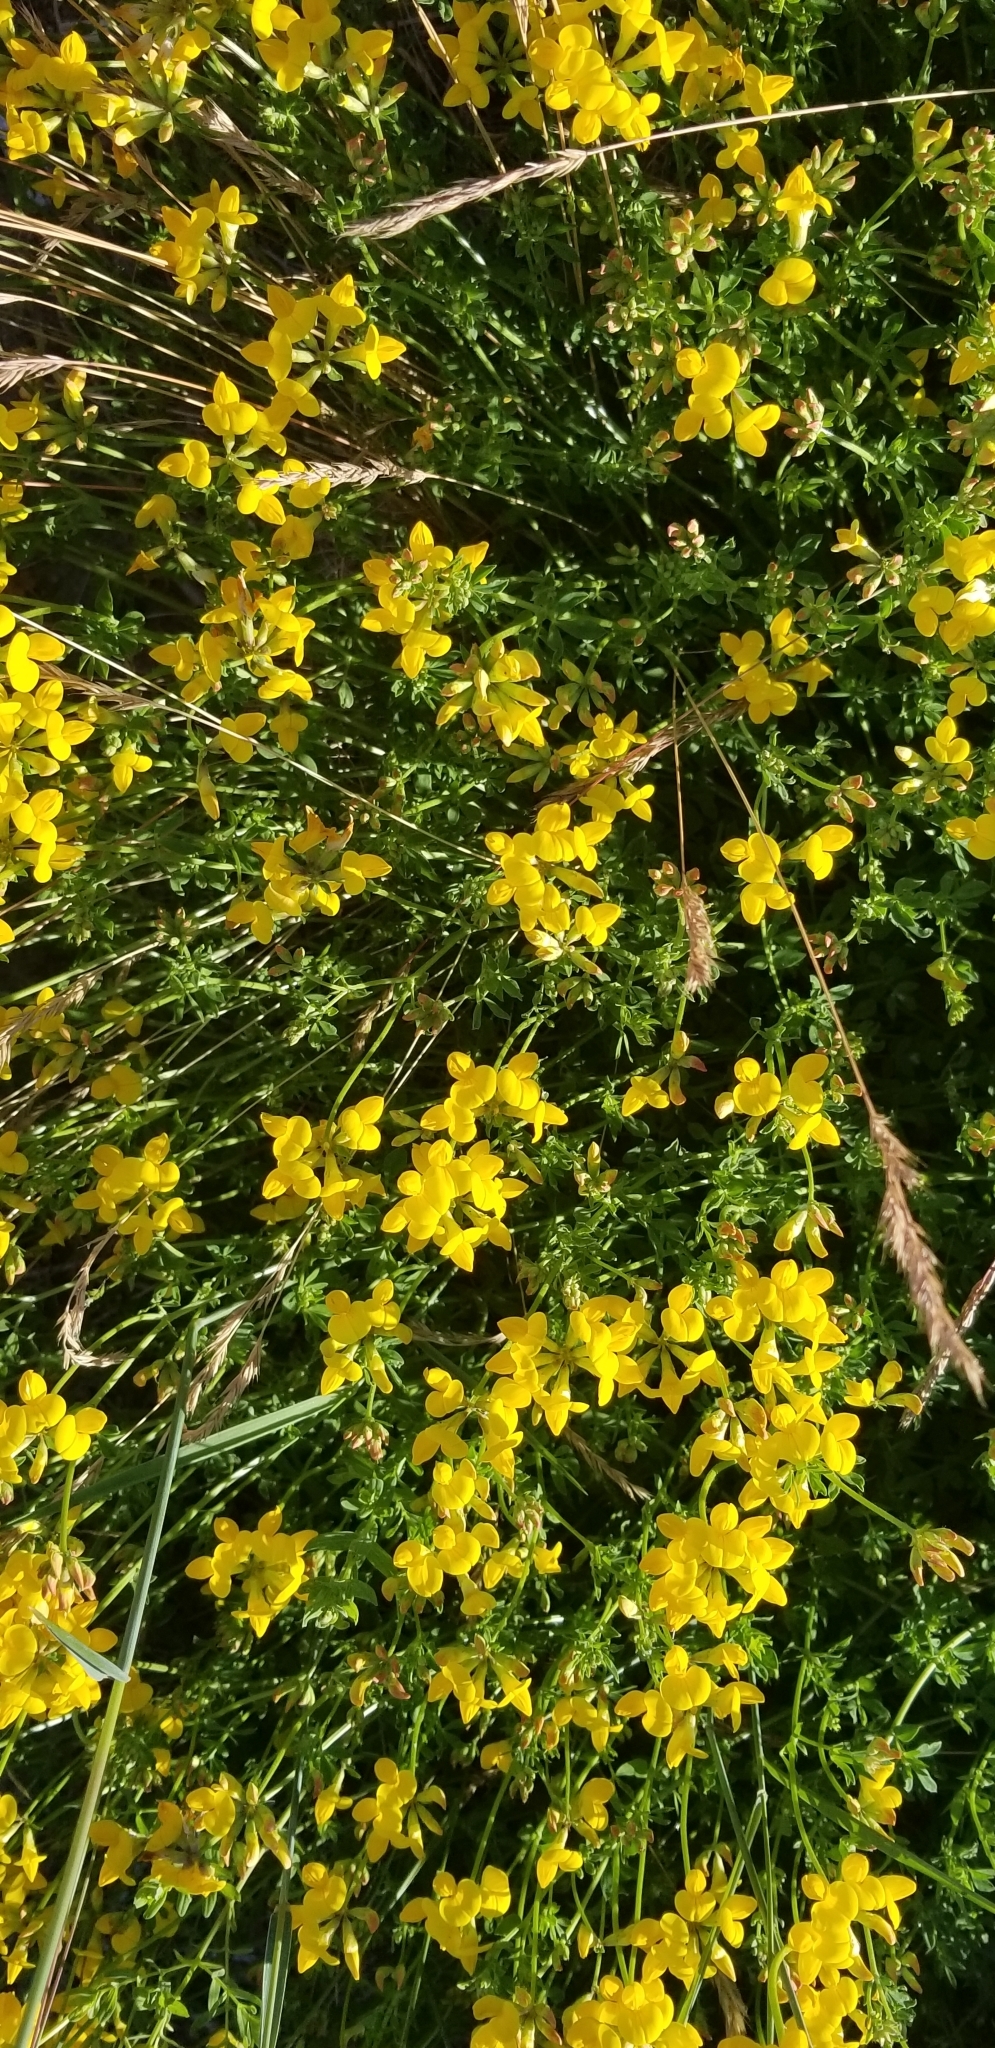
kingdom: Plantae
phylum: Tracheophyta
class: Magnoliopsida
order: Fabales
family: Fabaceae
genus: Lotus
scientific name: Lotus corniculatus
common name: Common bird's-foot-trefoil
